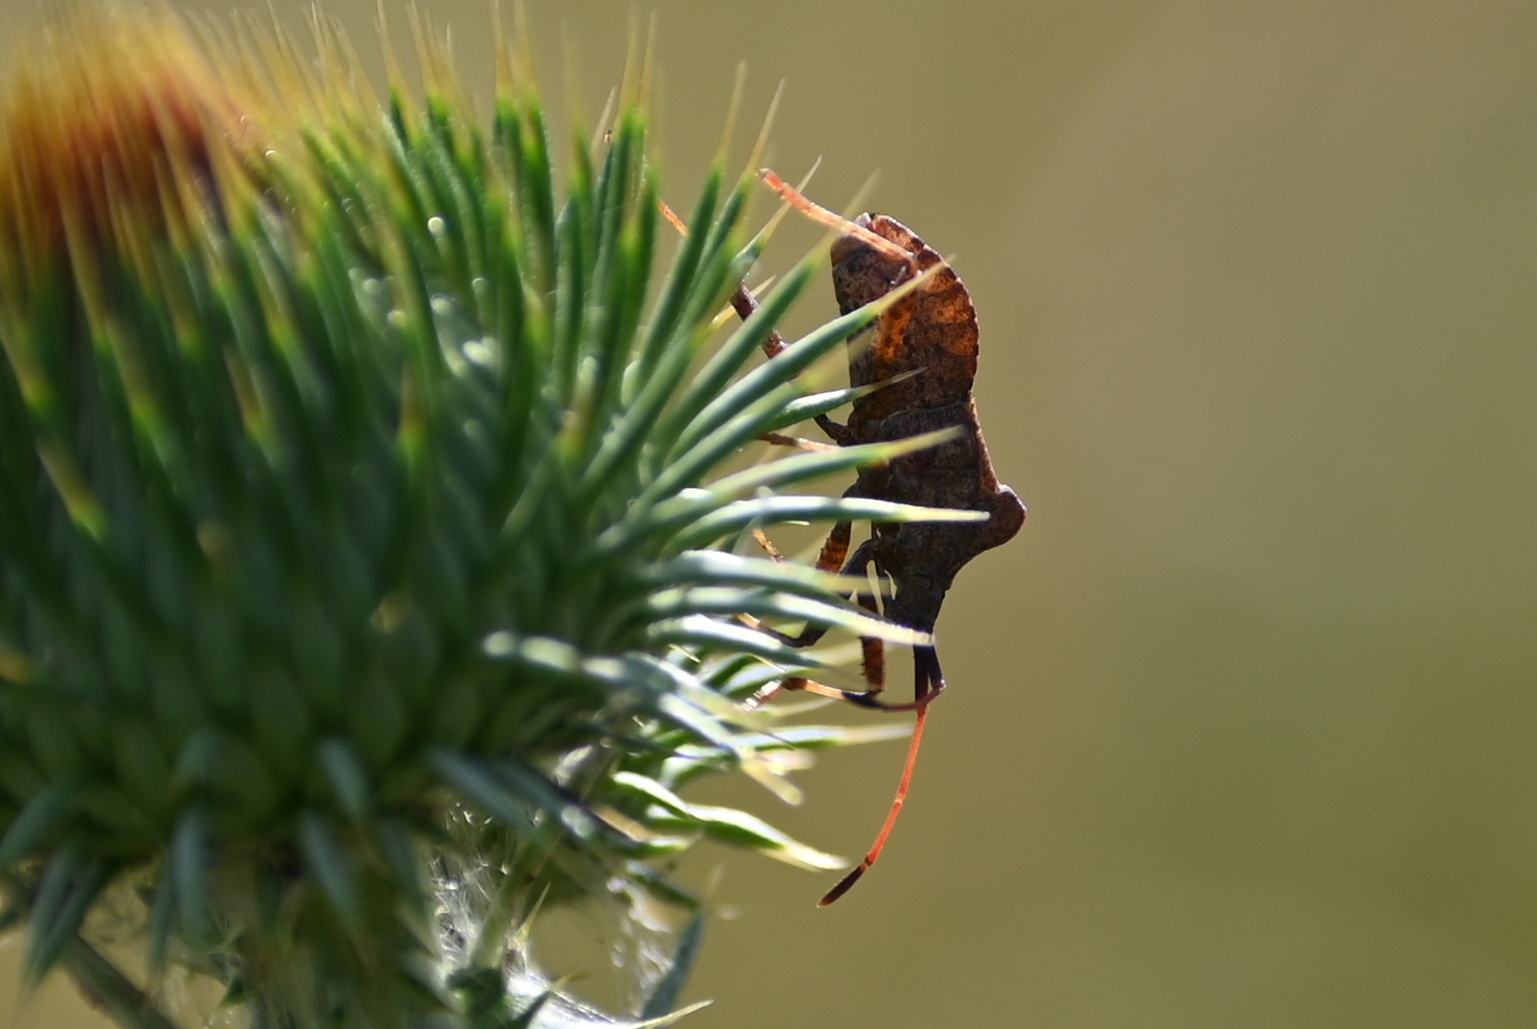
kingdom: Animalia
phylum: Arthropoda
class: Insecta
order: Hemiptera
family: Coreidae
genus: Coreus
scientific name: Coreus marginatus
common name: Dock bug
